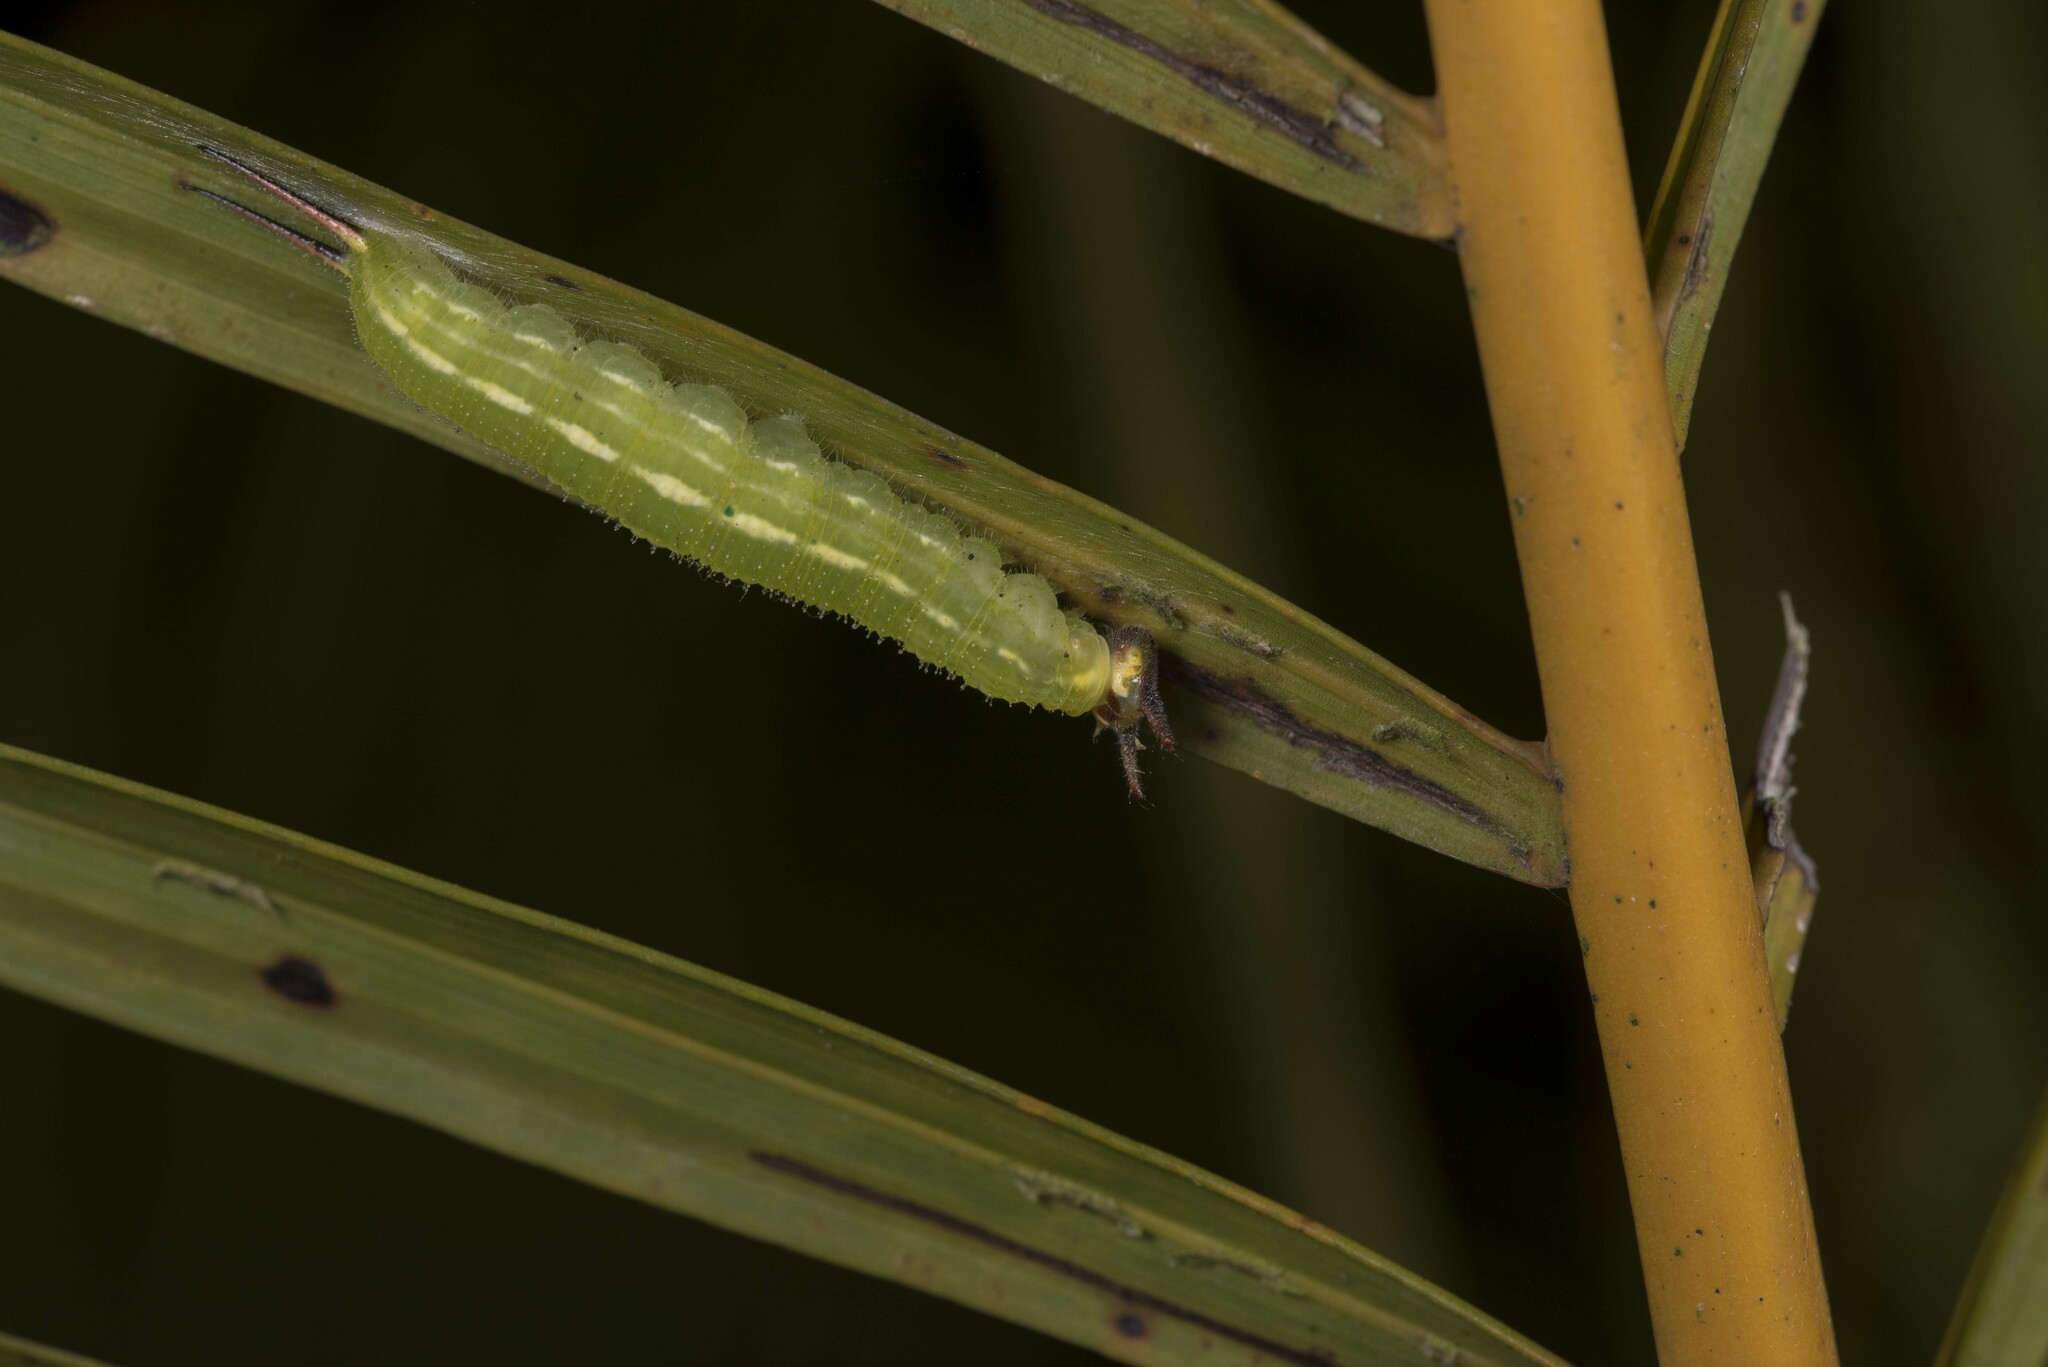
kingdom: Animalia
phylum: Arthropoda
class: Insecta
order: Lepidoptera
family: Nymphalidae
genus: Elymnias
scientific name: Elymnias hypermnestra
